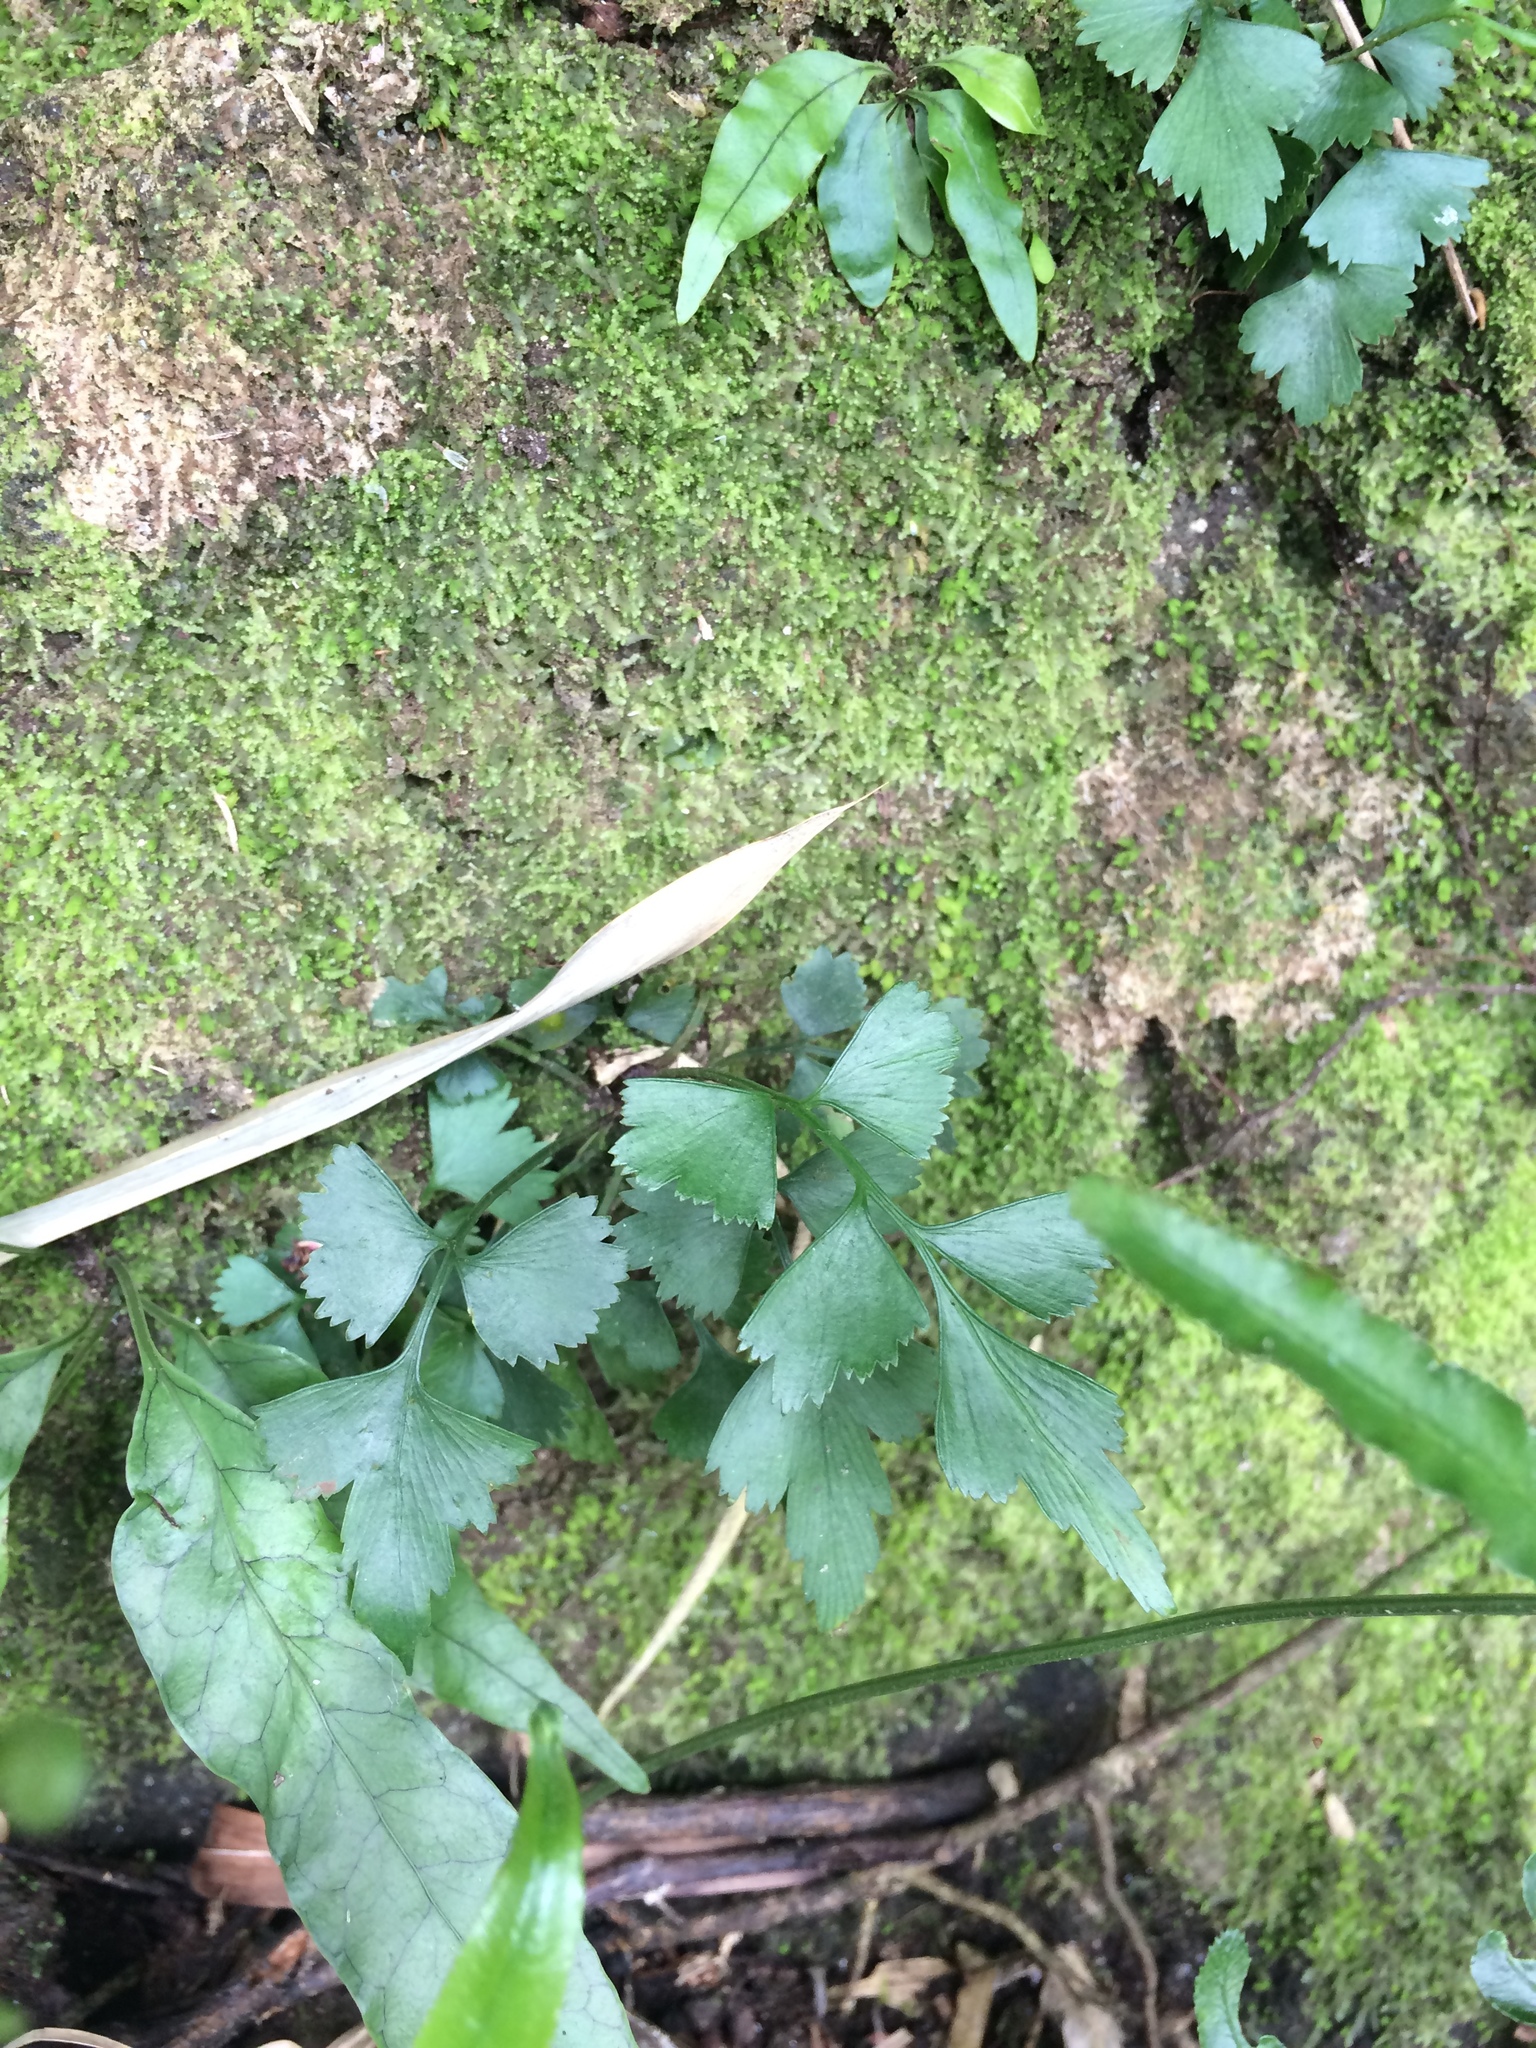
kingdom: Plantae
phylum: Tracheophyta
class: Polypodiopsida
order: Polypodiales
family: Pteridaceae
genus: Pteris
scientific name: Pteris ensiformis
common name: Sword brake
